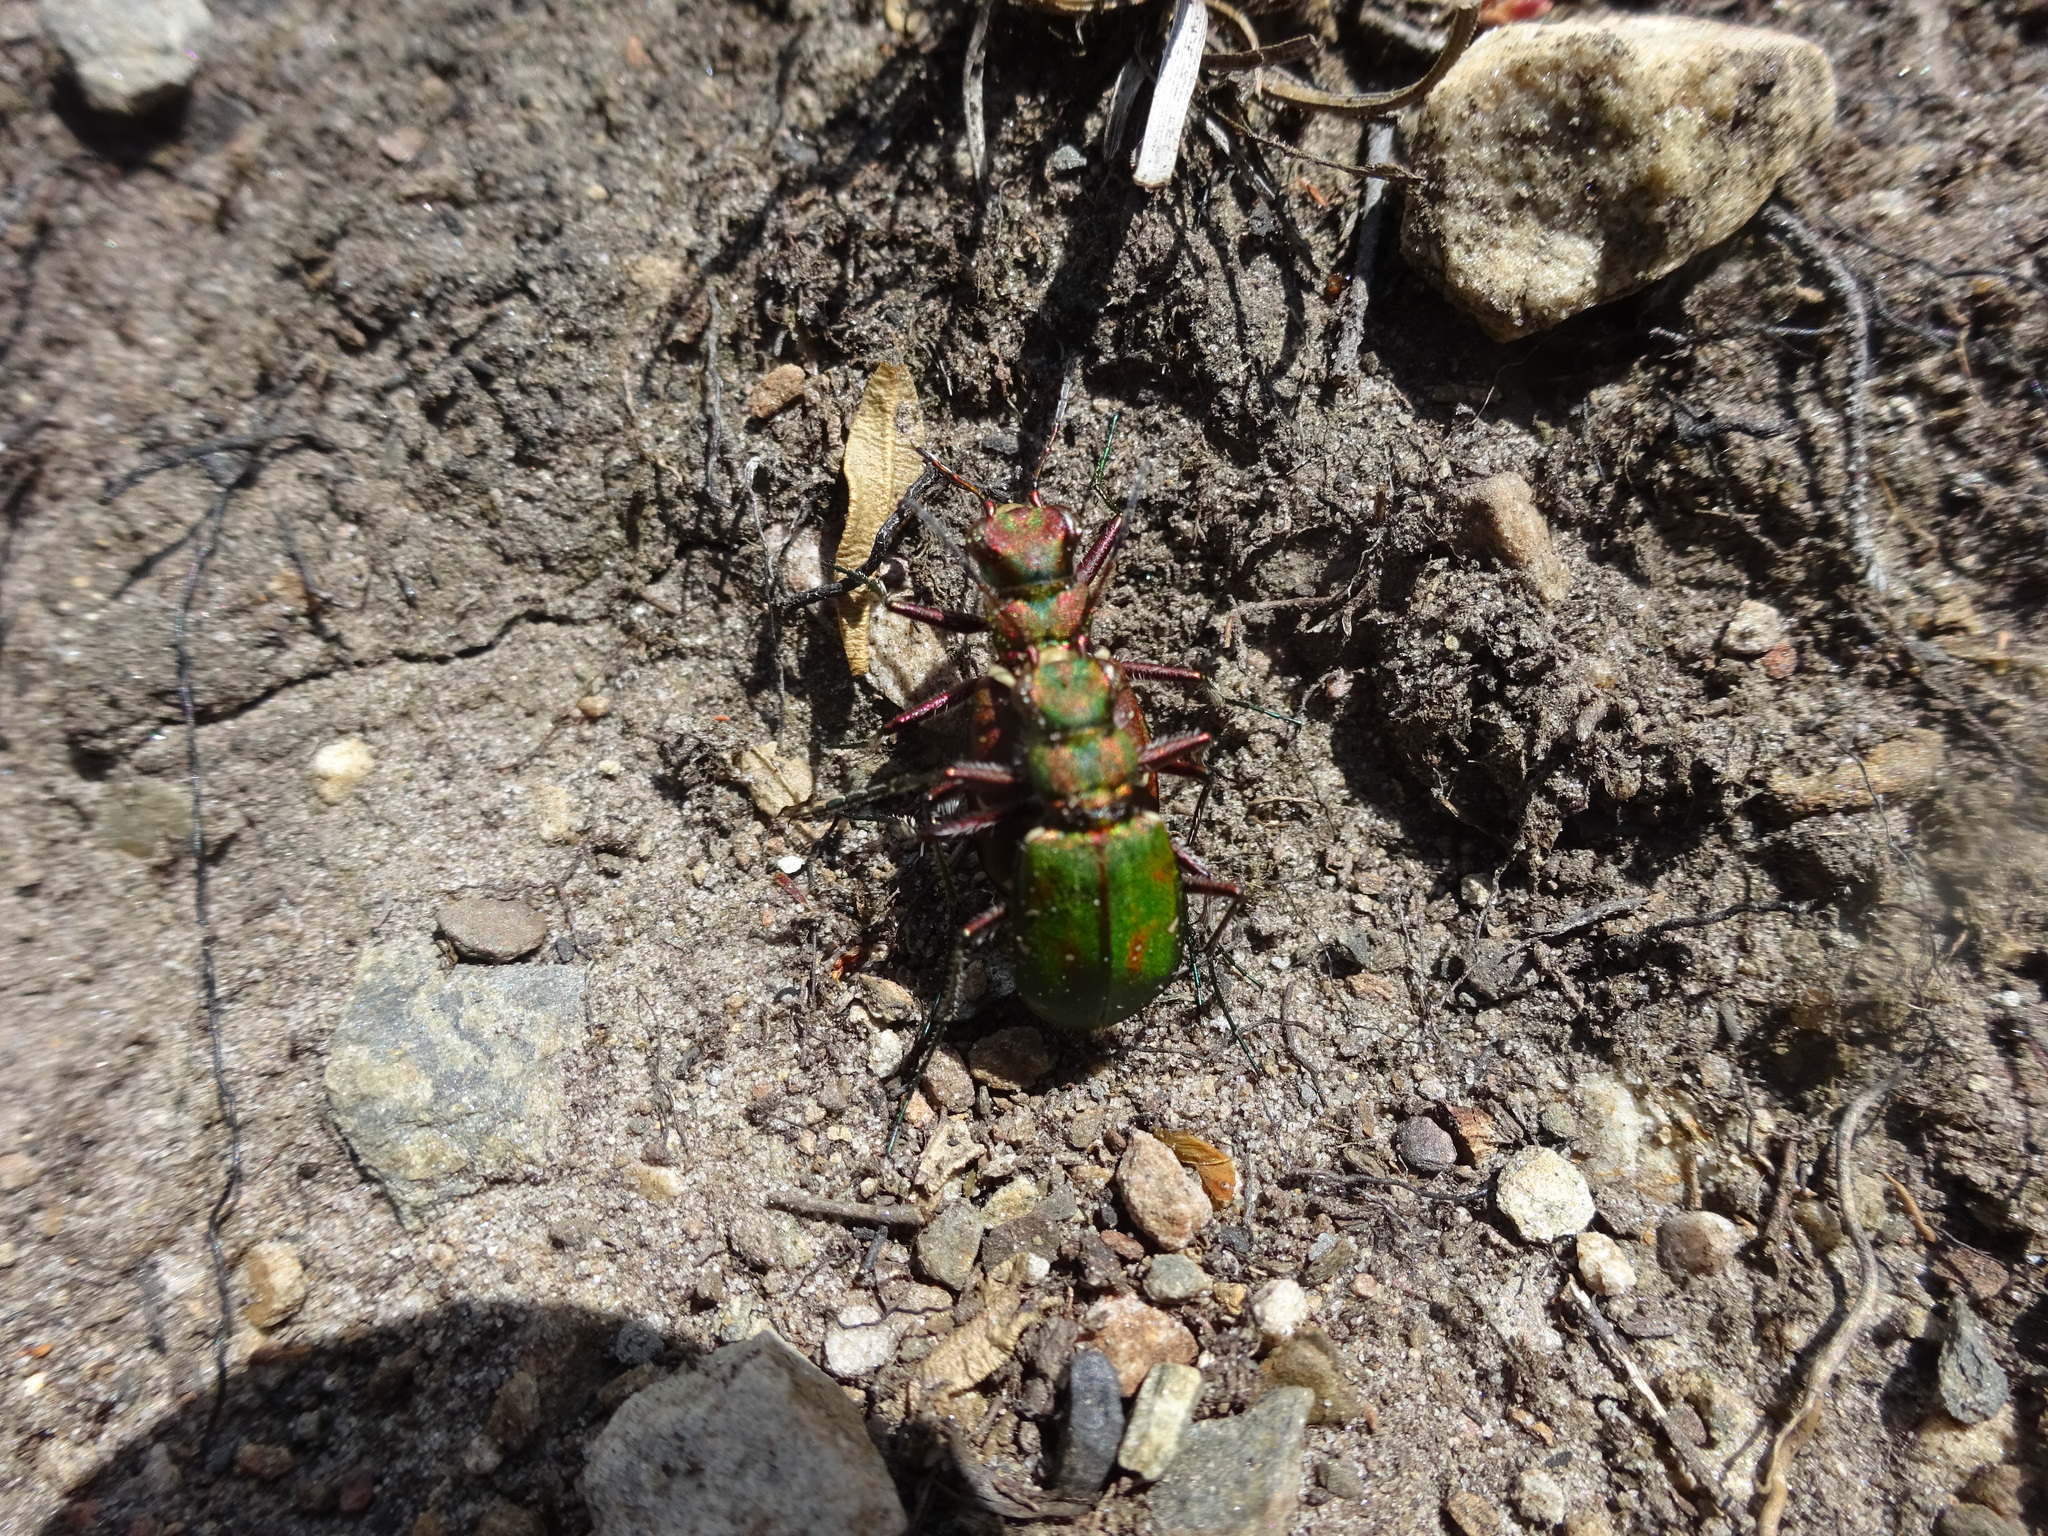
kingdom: Animalia
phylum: Arthropoda
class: Insecta
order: Coleoptera
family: Carabidae
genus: Cicindela
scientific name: Cicindela campestris
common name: Common tiger beetle
